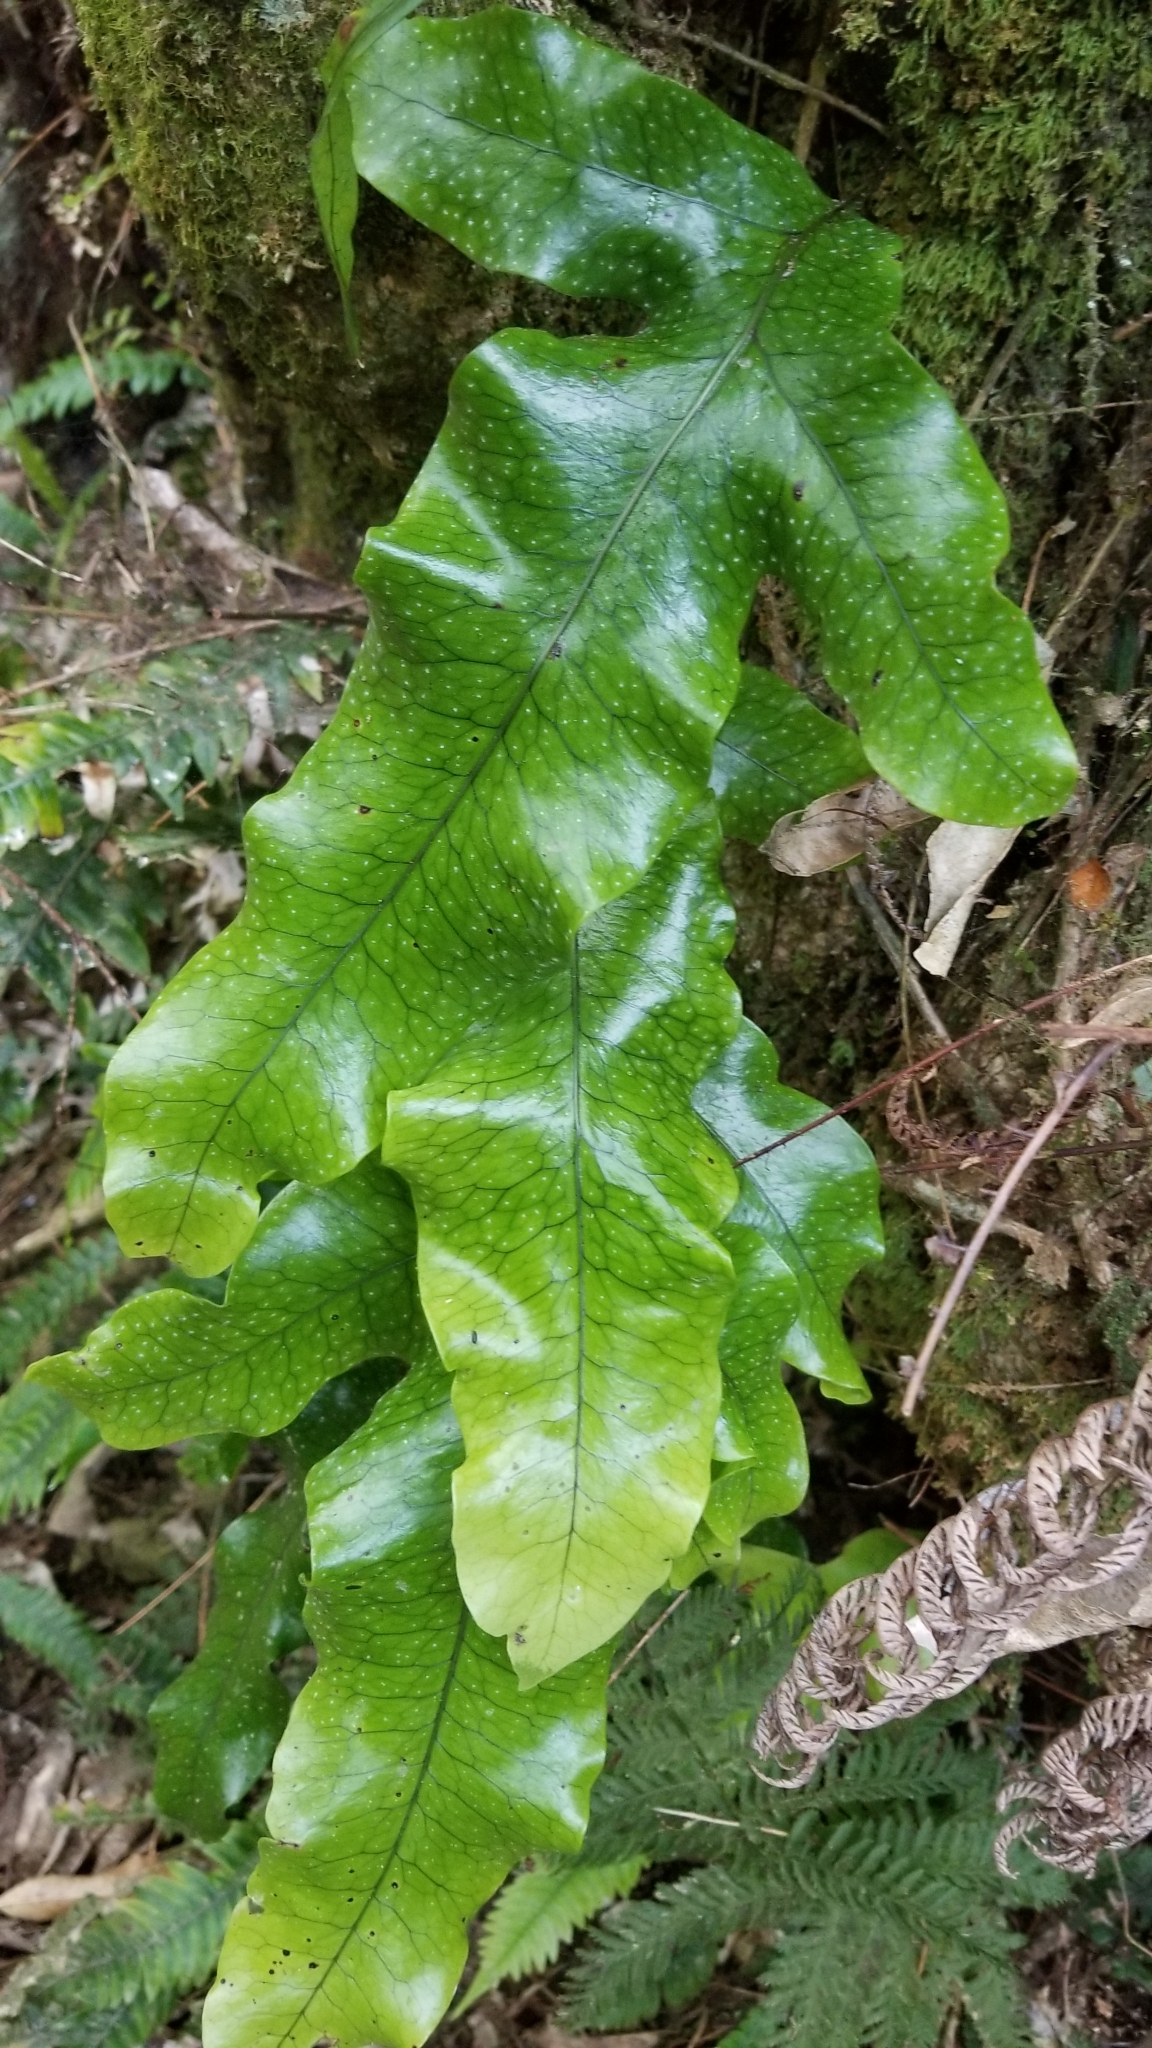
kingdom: Plantae
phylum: Tracheophyta
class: Polypodiopsida
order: Polypodiales
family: Polypodiaceae
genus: Lecanopteris
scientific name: Lecanopteris pustulata
